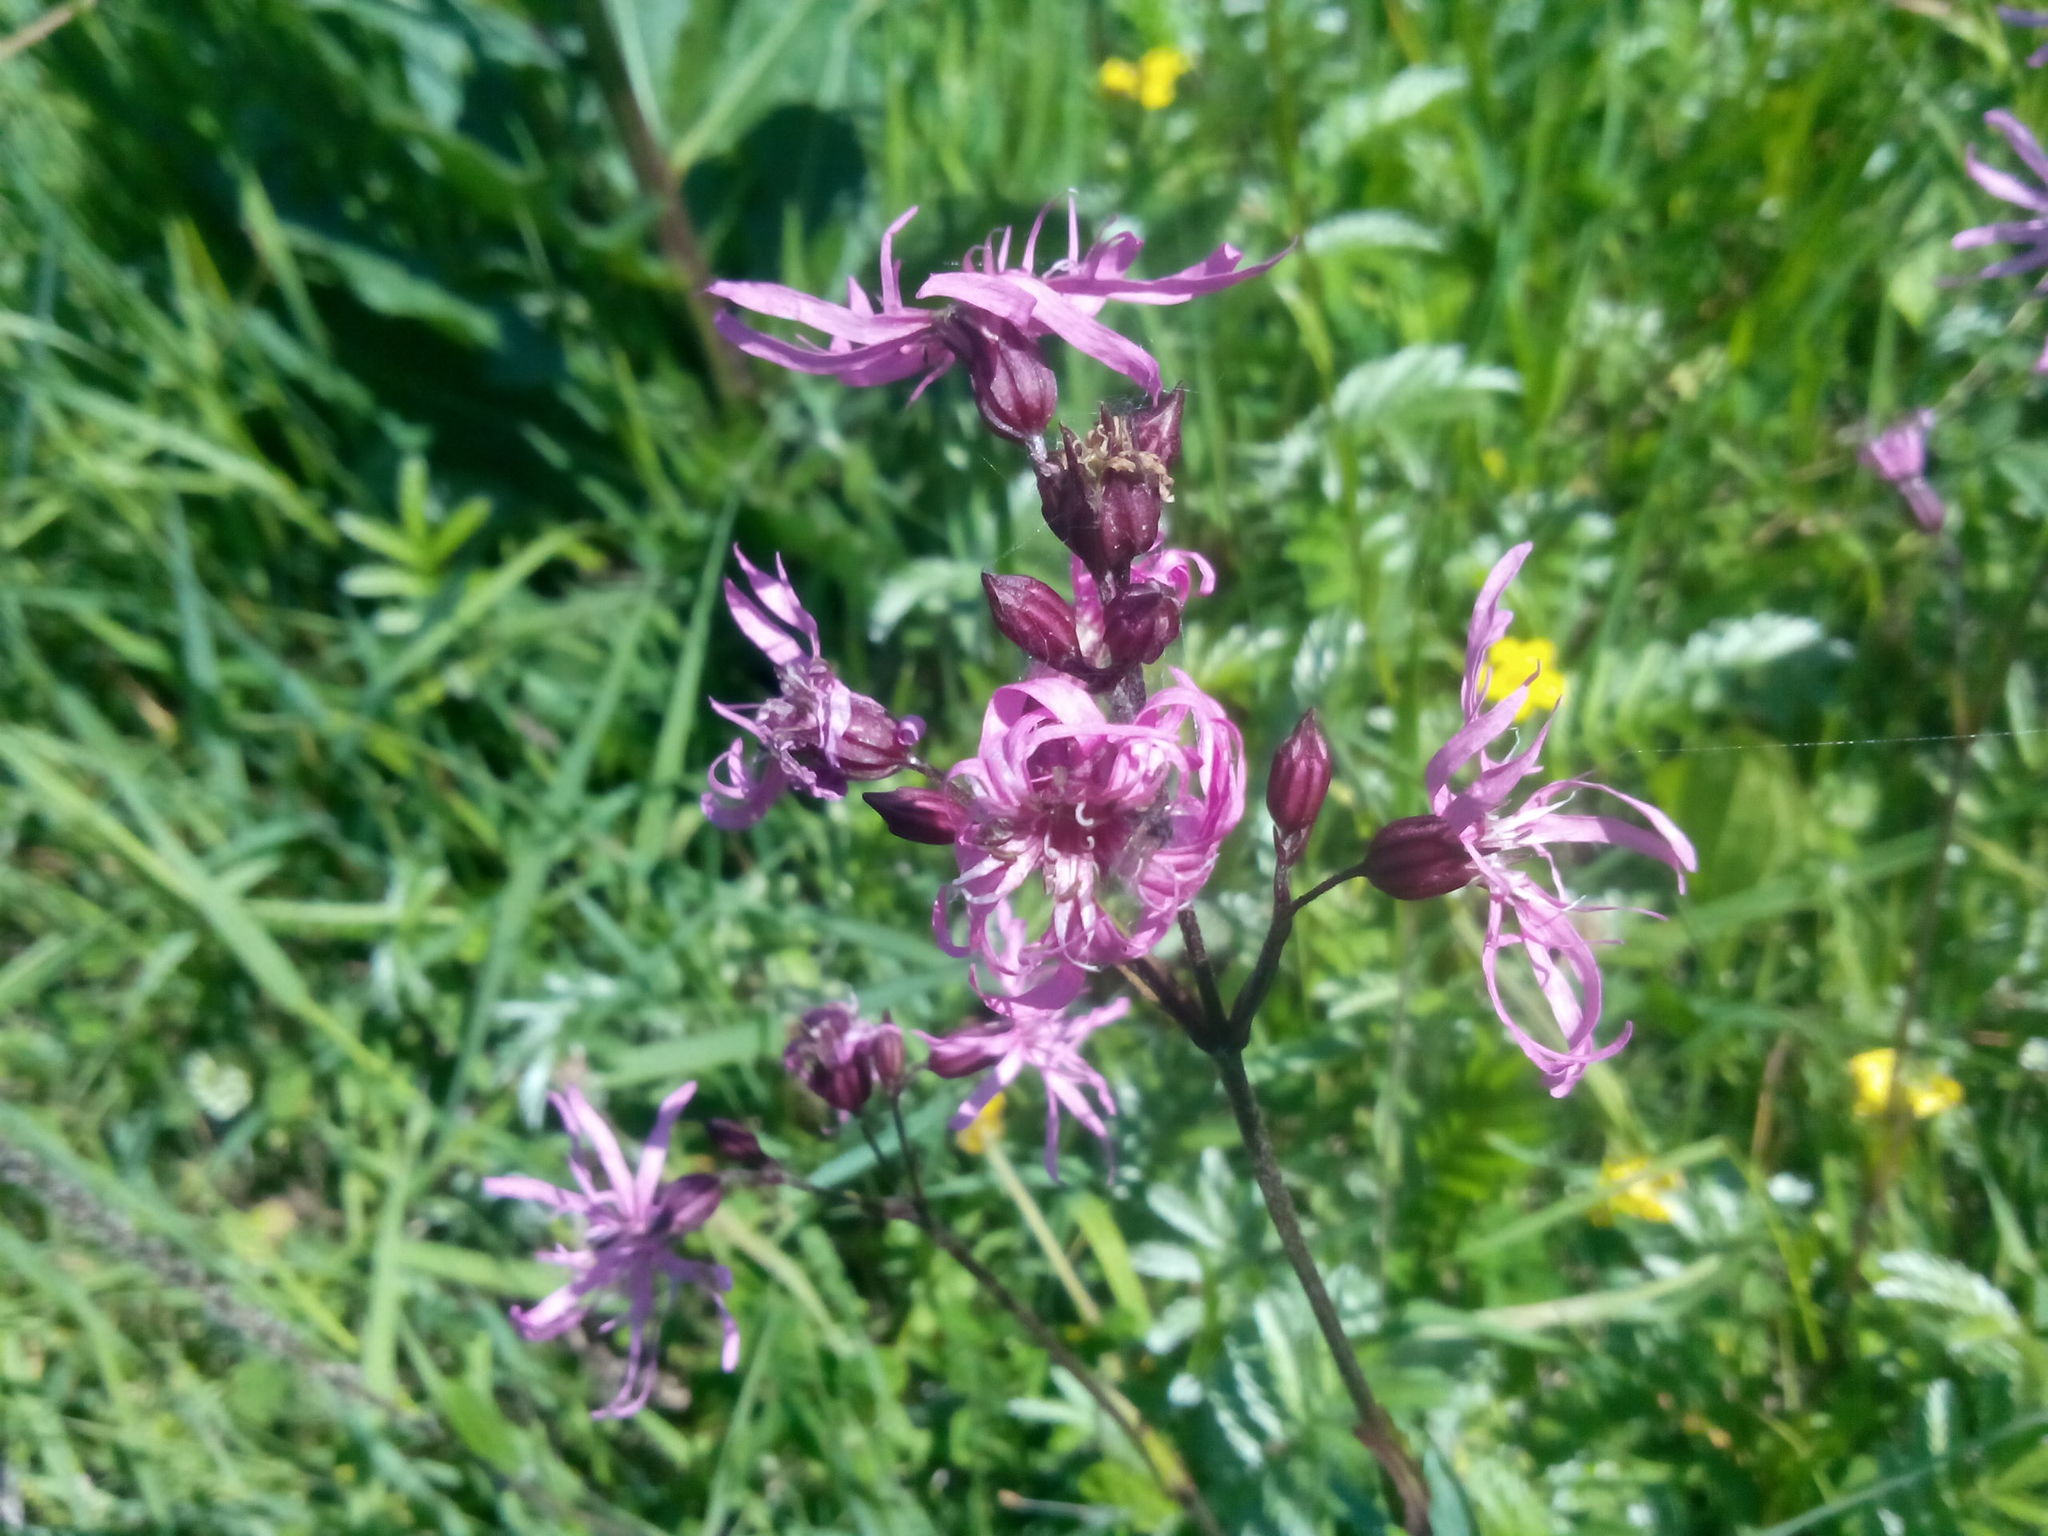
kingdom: Plantae
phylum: Tracheophyta
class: Magnoliopsida
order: Caryophyllales
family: Caryophyllaceae
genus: Silene
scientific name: Silene flos-cuculi
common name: Ragged-robin
